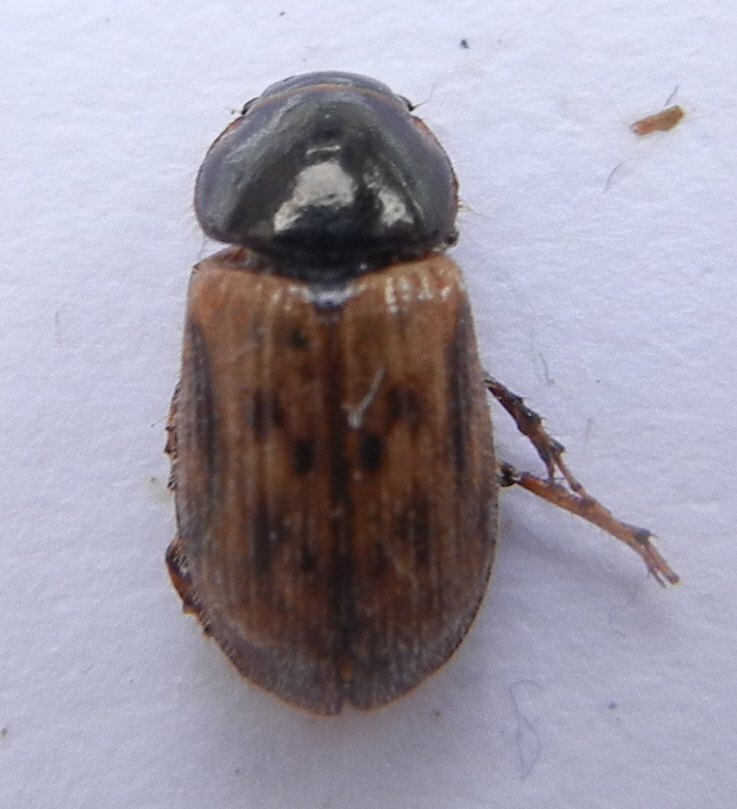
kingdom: Animalia
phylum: Arthropoda
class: Insecta
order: Coleoptera
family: Scarabaeidae
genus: Nimbus
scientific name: Nimbus contaminatus
